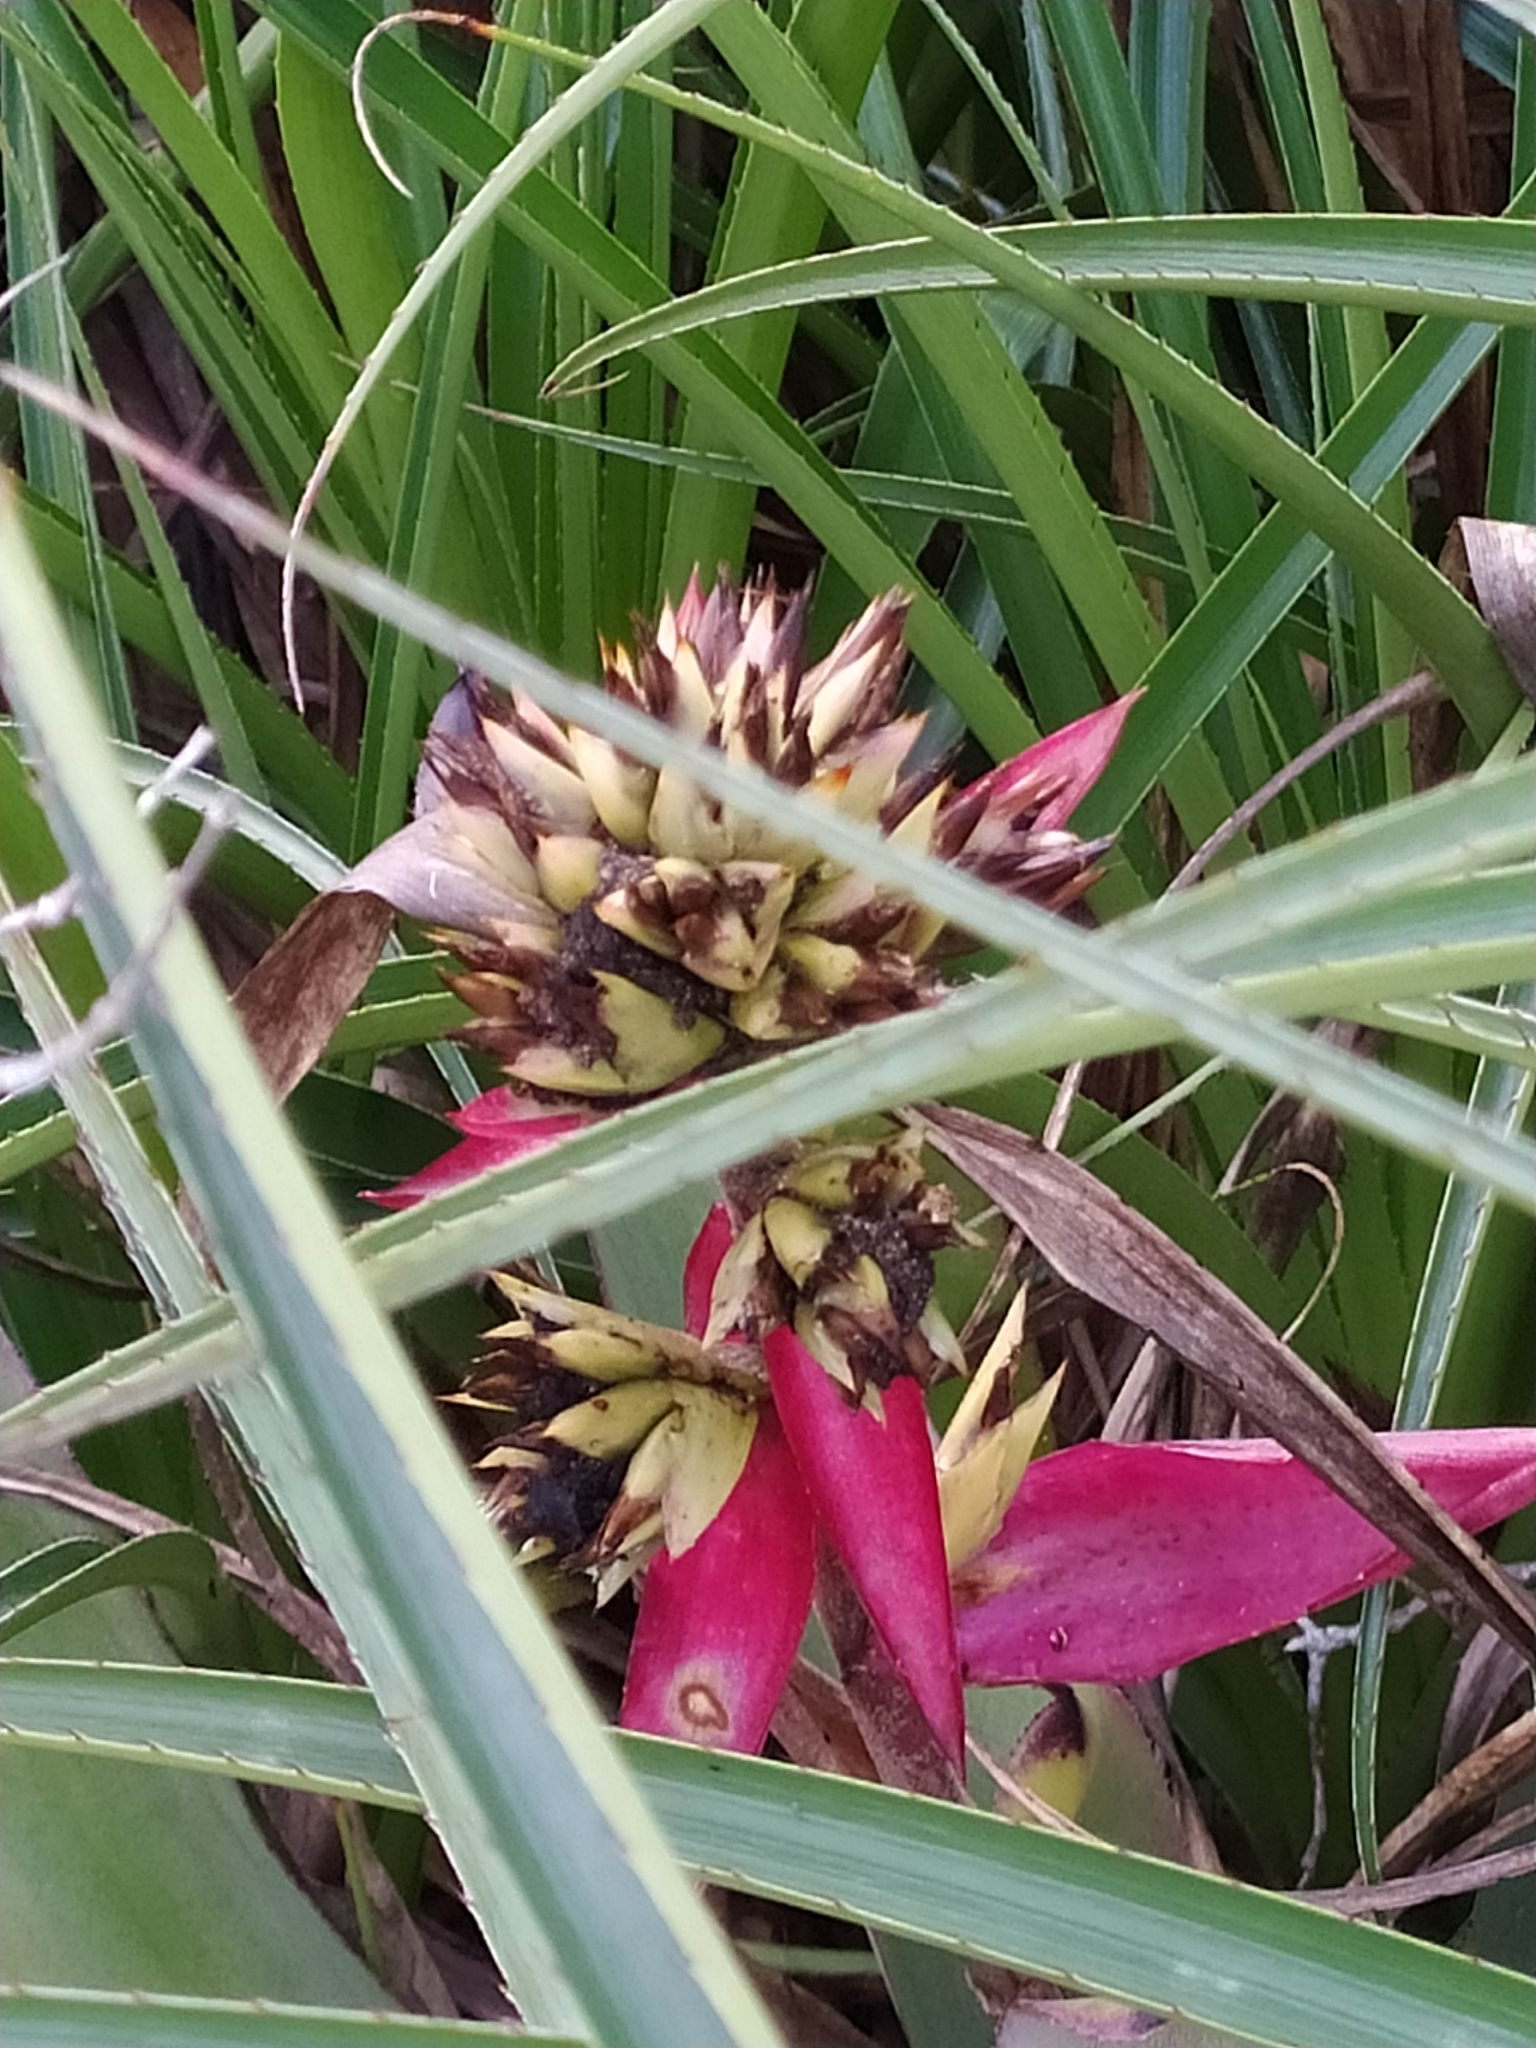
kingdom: Plantae
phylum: Tracheophyta
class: Liliopsida
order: Poales
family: Bromeliaceae
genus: Aechmea
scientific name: Aechmea aquilega
